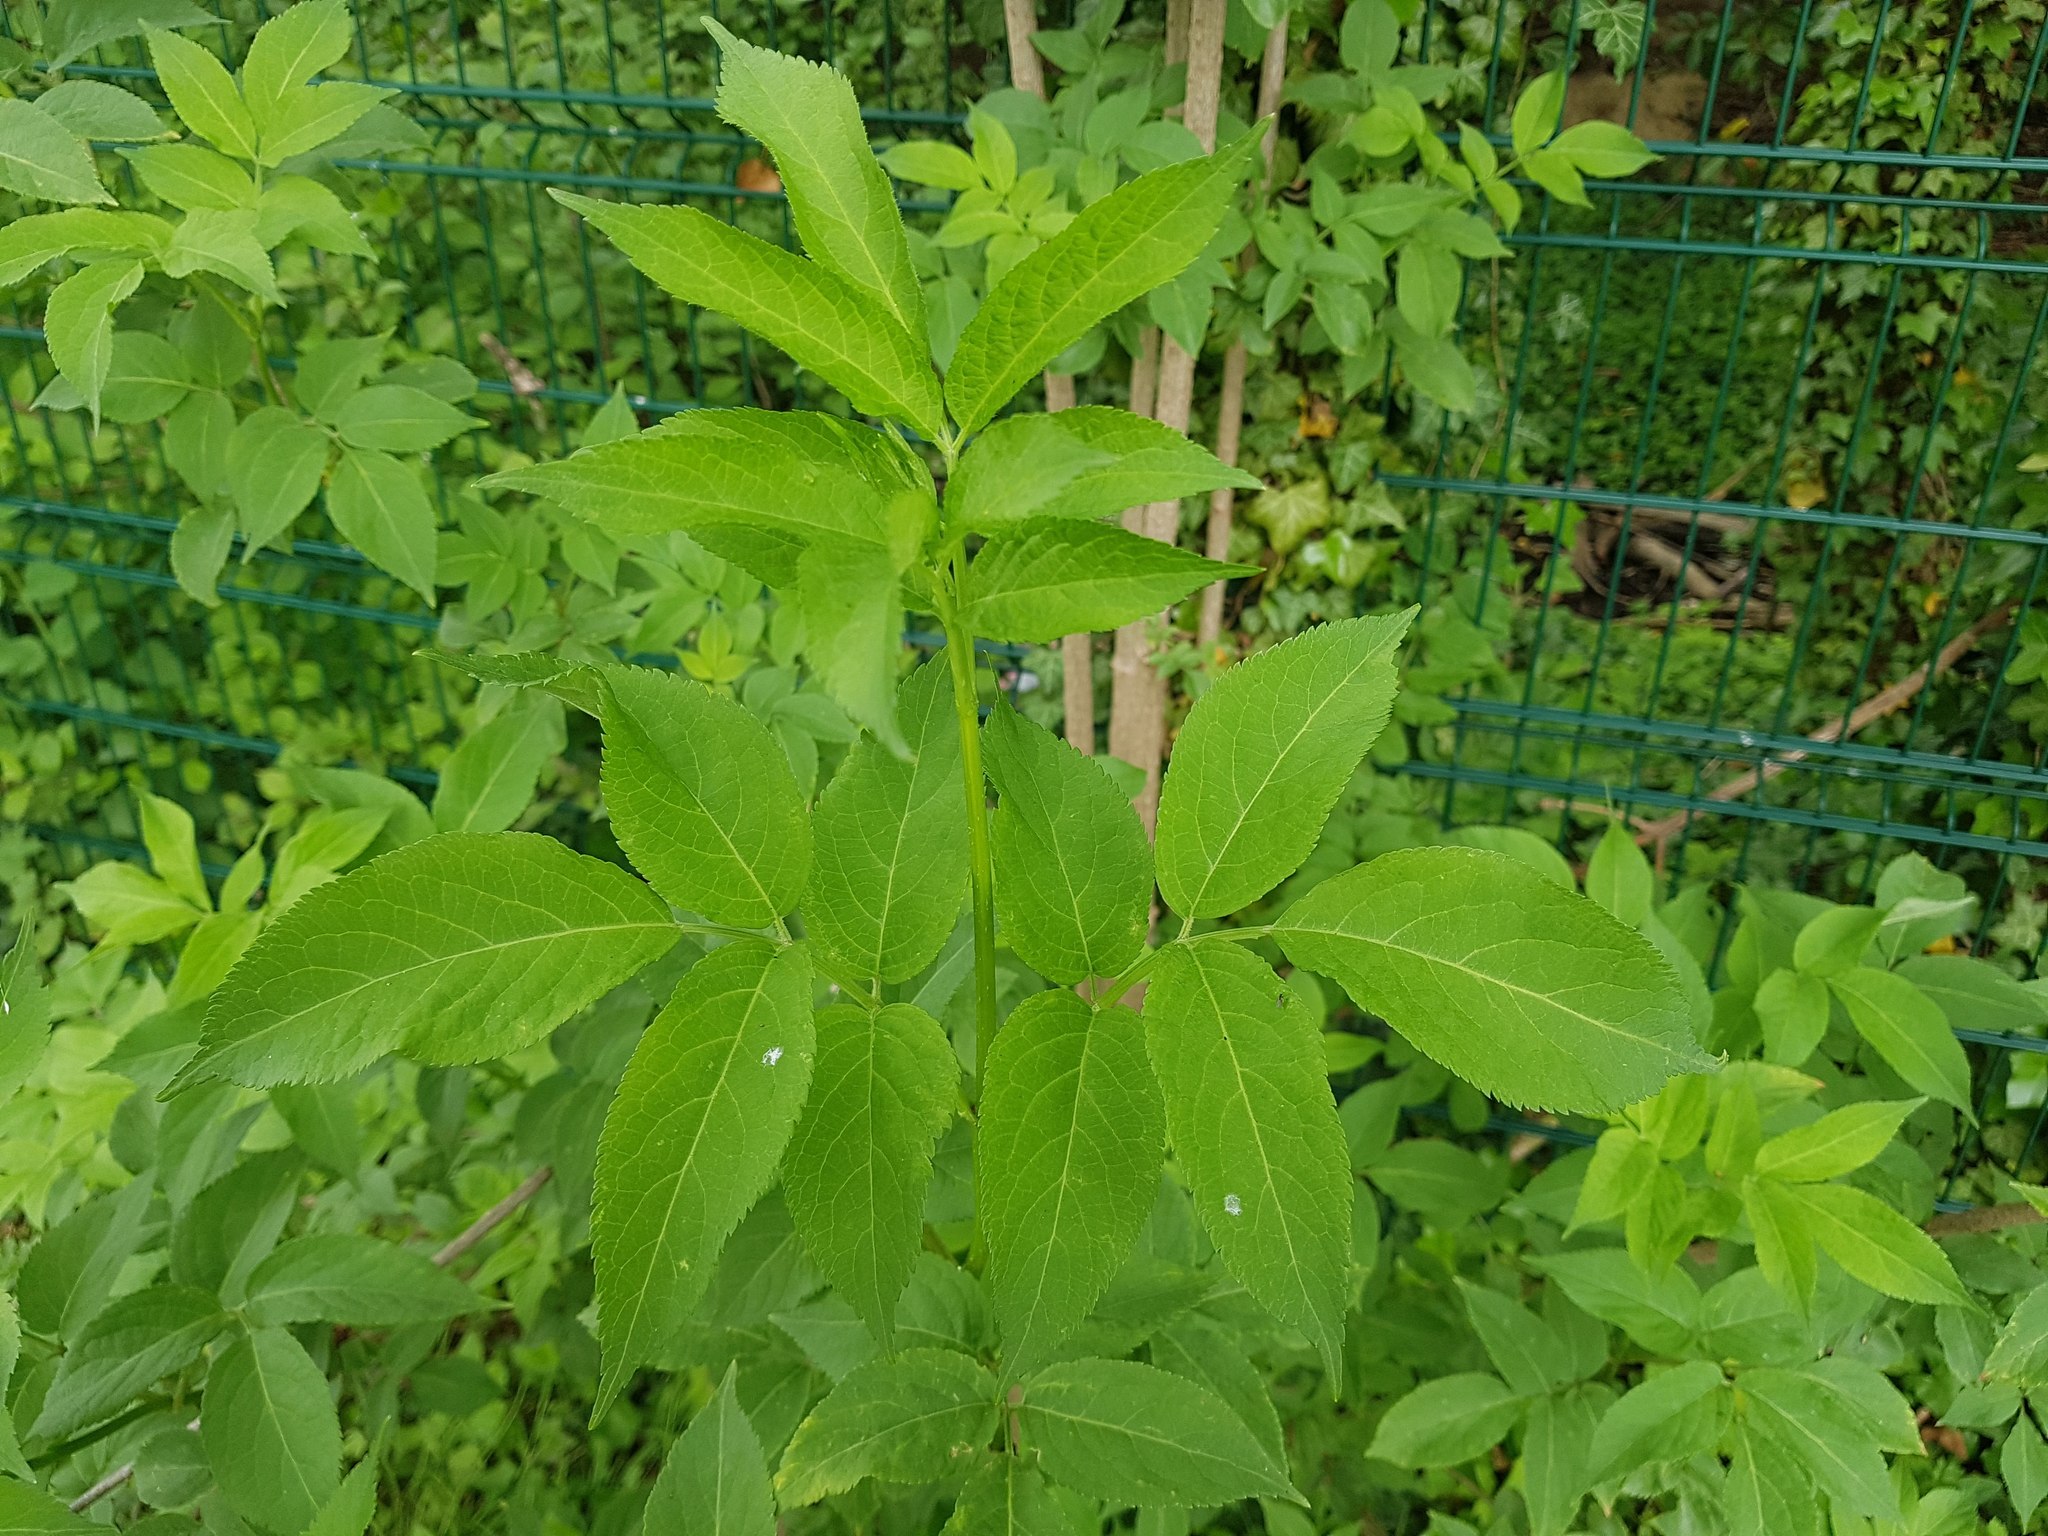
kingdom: Plantae
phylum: Tracheophyta
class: Magnoliopsida
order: Dipsacales
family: Viburnaceae
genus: Sambucus
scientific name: Sambucus nigra
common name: Elder
